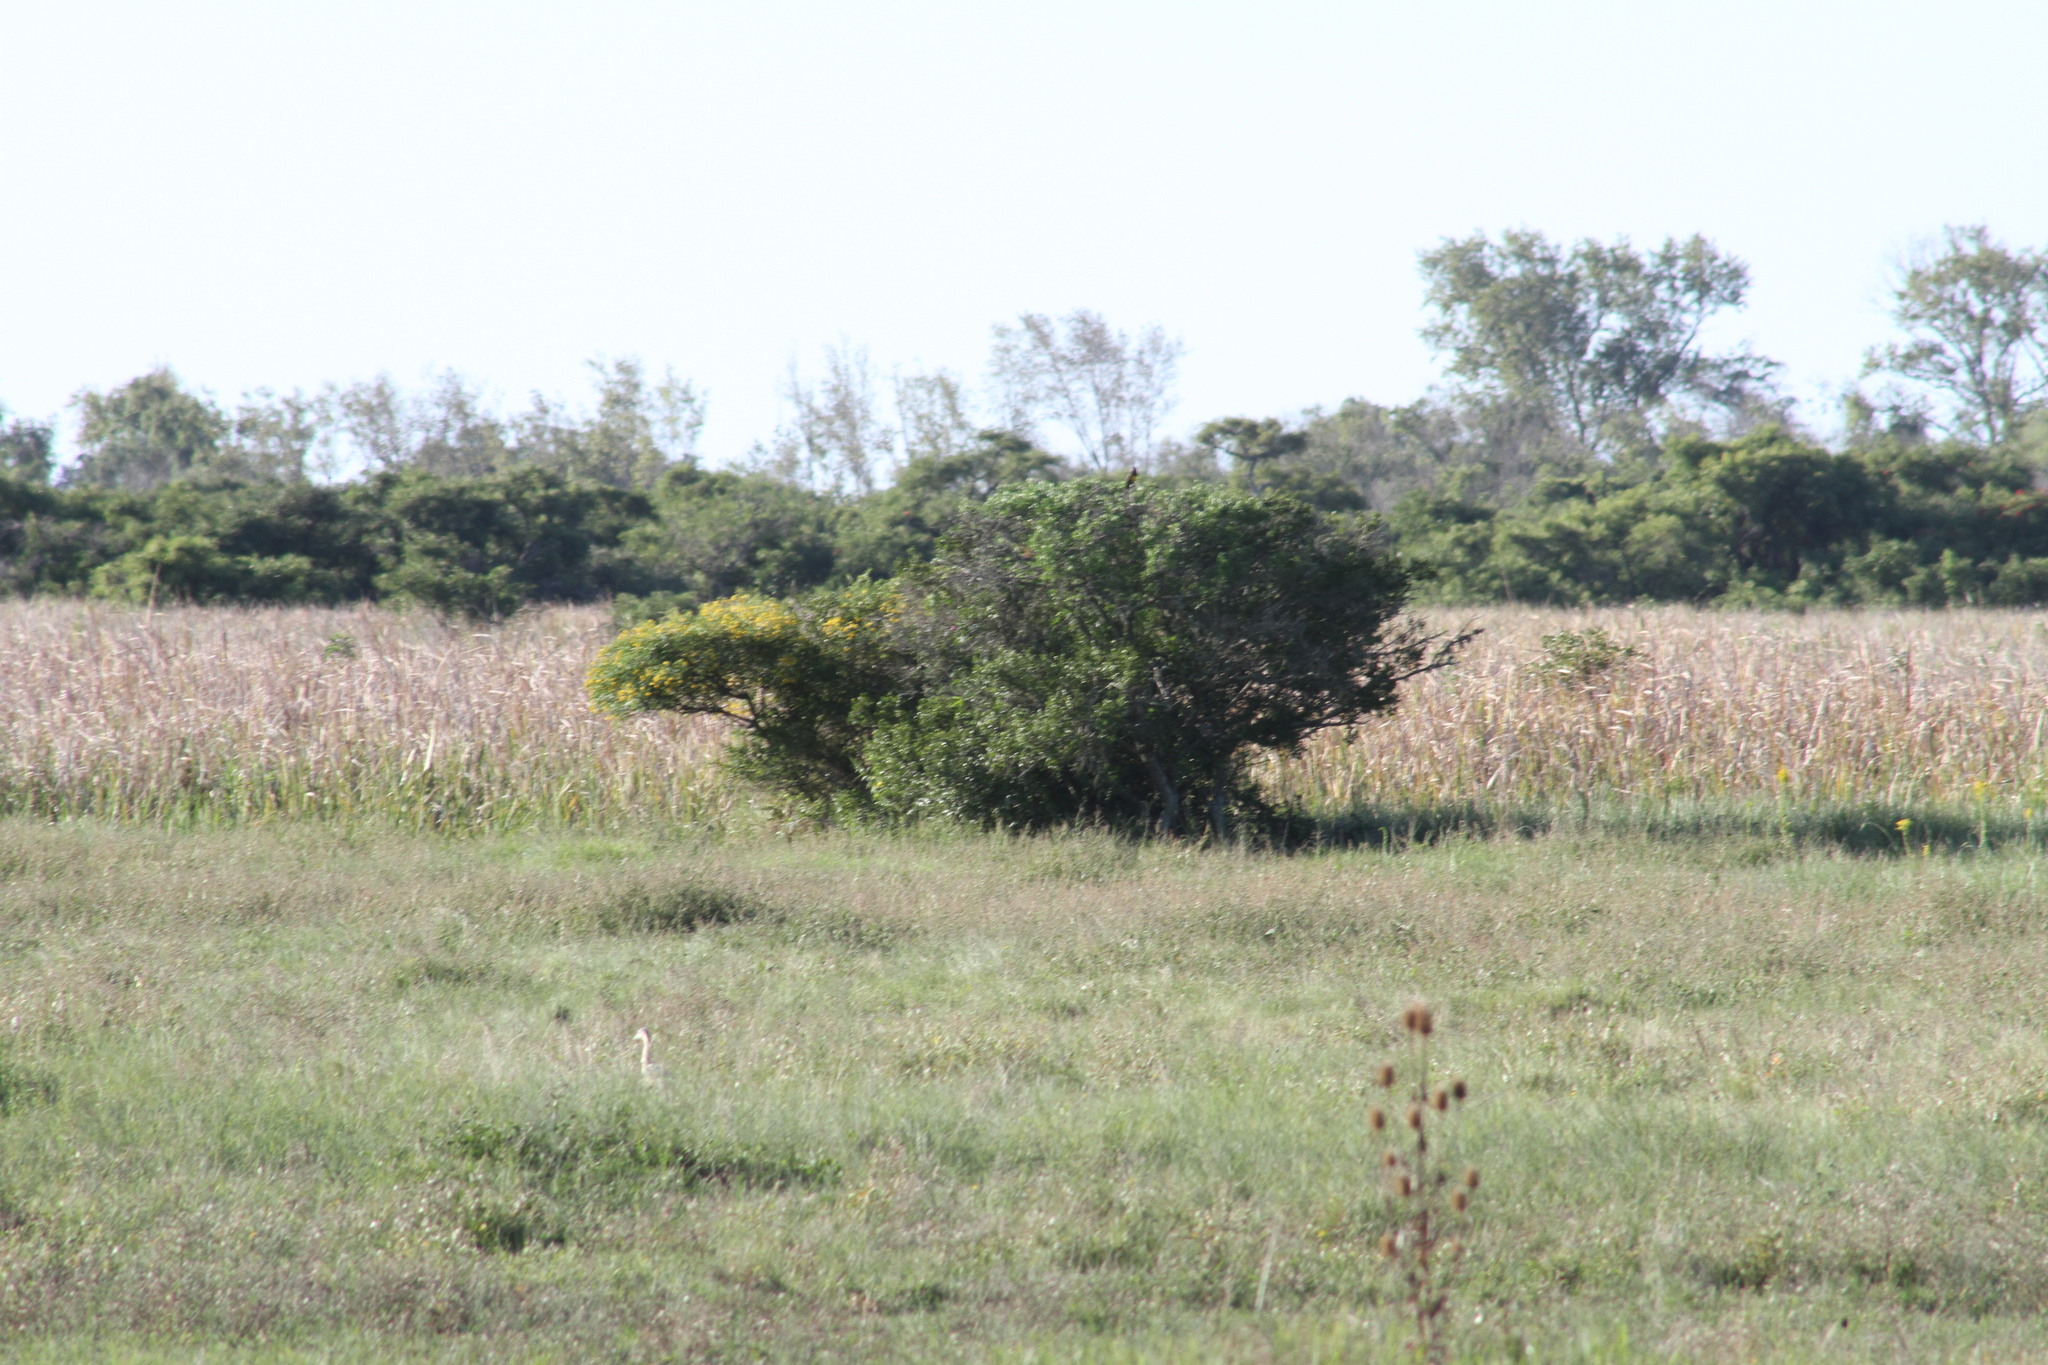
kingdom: Animalia
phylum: Chordata
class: Aves
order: Passeriformes
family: Icteridae
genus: Pseudoleistes
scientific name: Pseudoleistes virescens
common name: Brown-and-yellow marshbird
